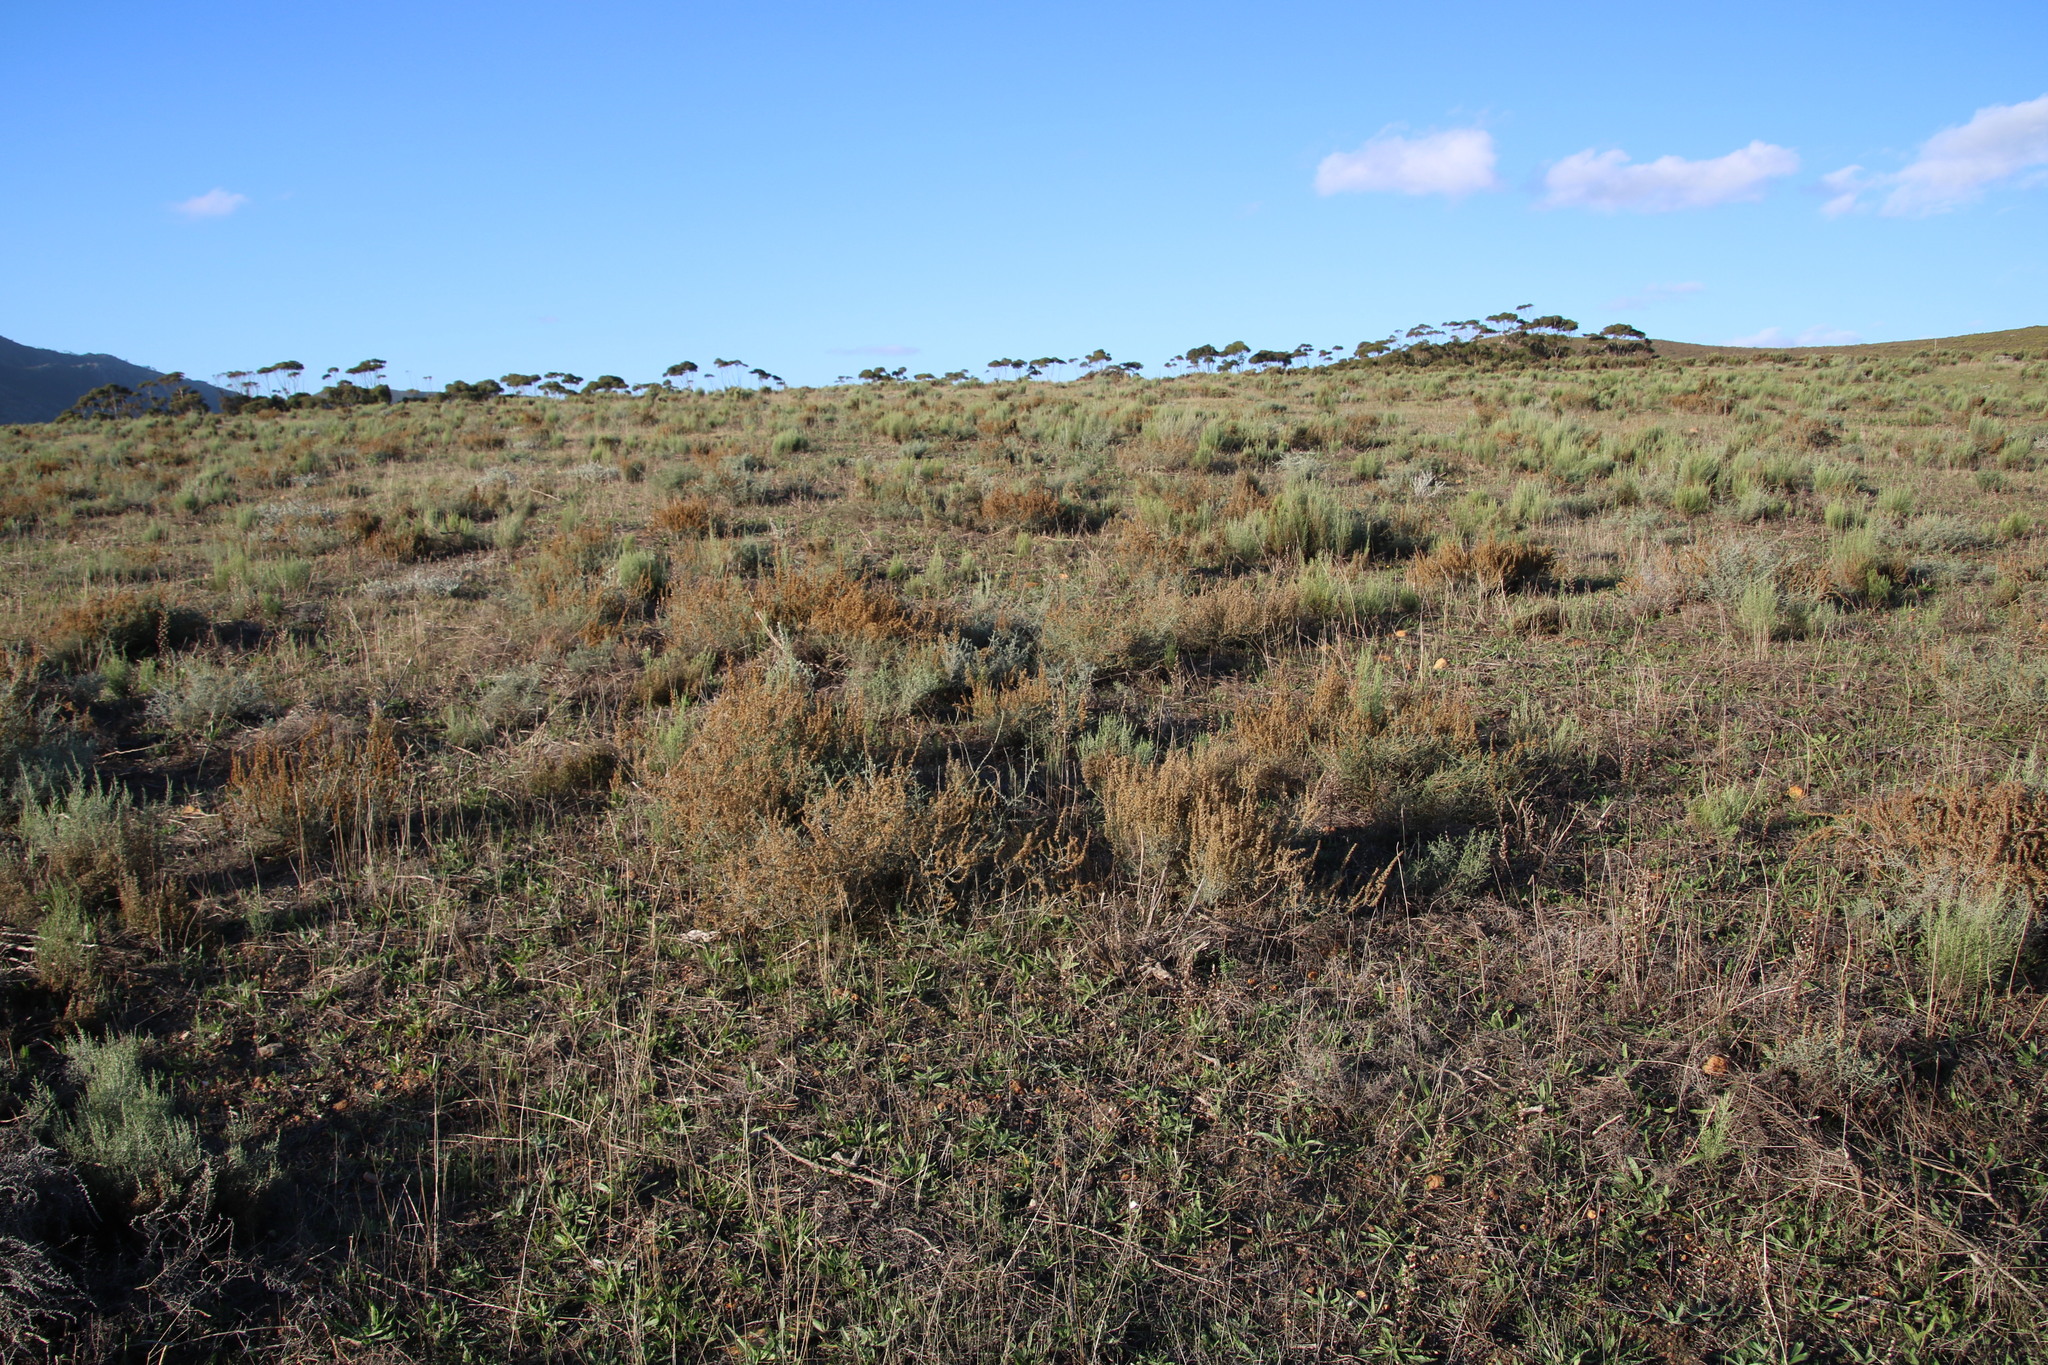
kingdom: Plantae
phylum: Tracheophyta
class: Magnoliopsida
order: Asterales
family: Asteraceae
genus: Seriphium
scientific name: Seriphium plumosum
